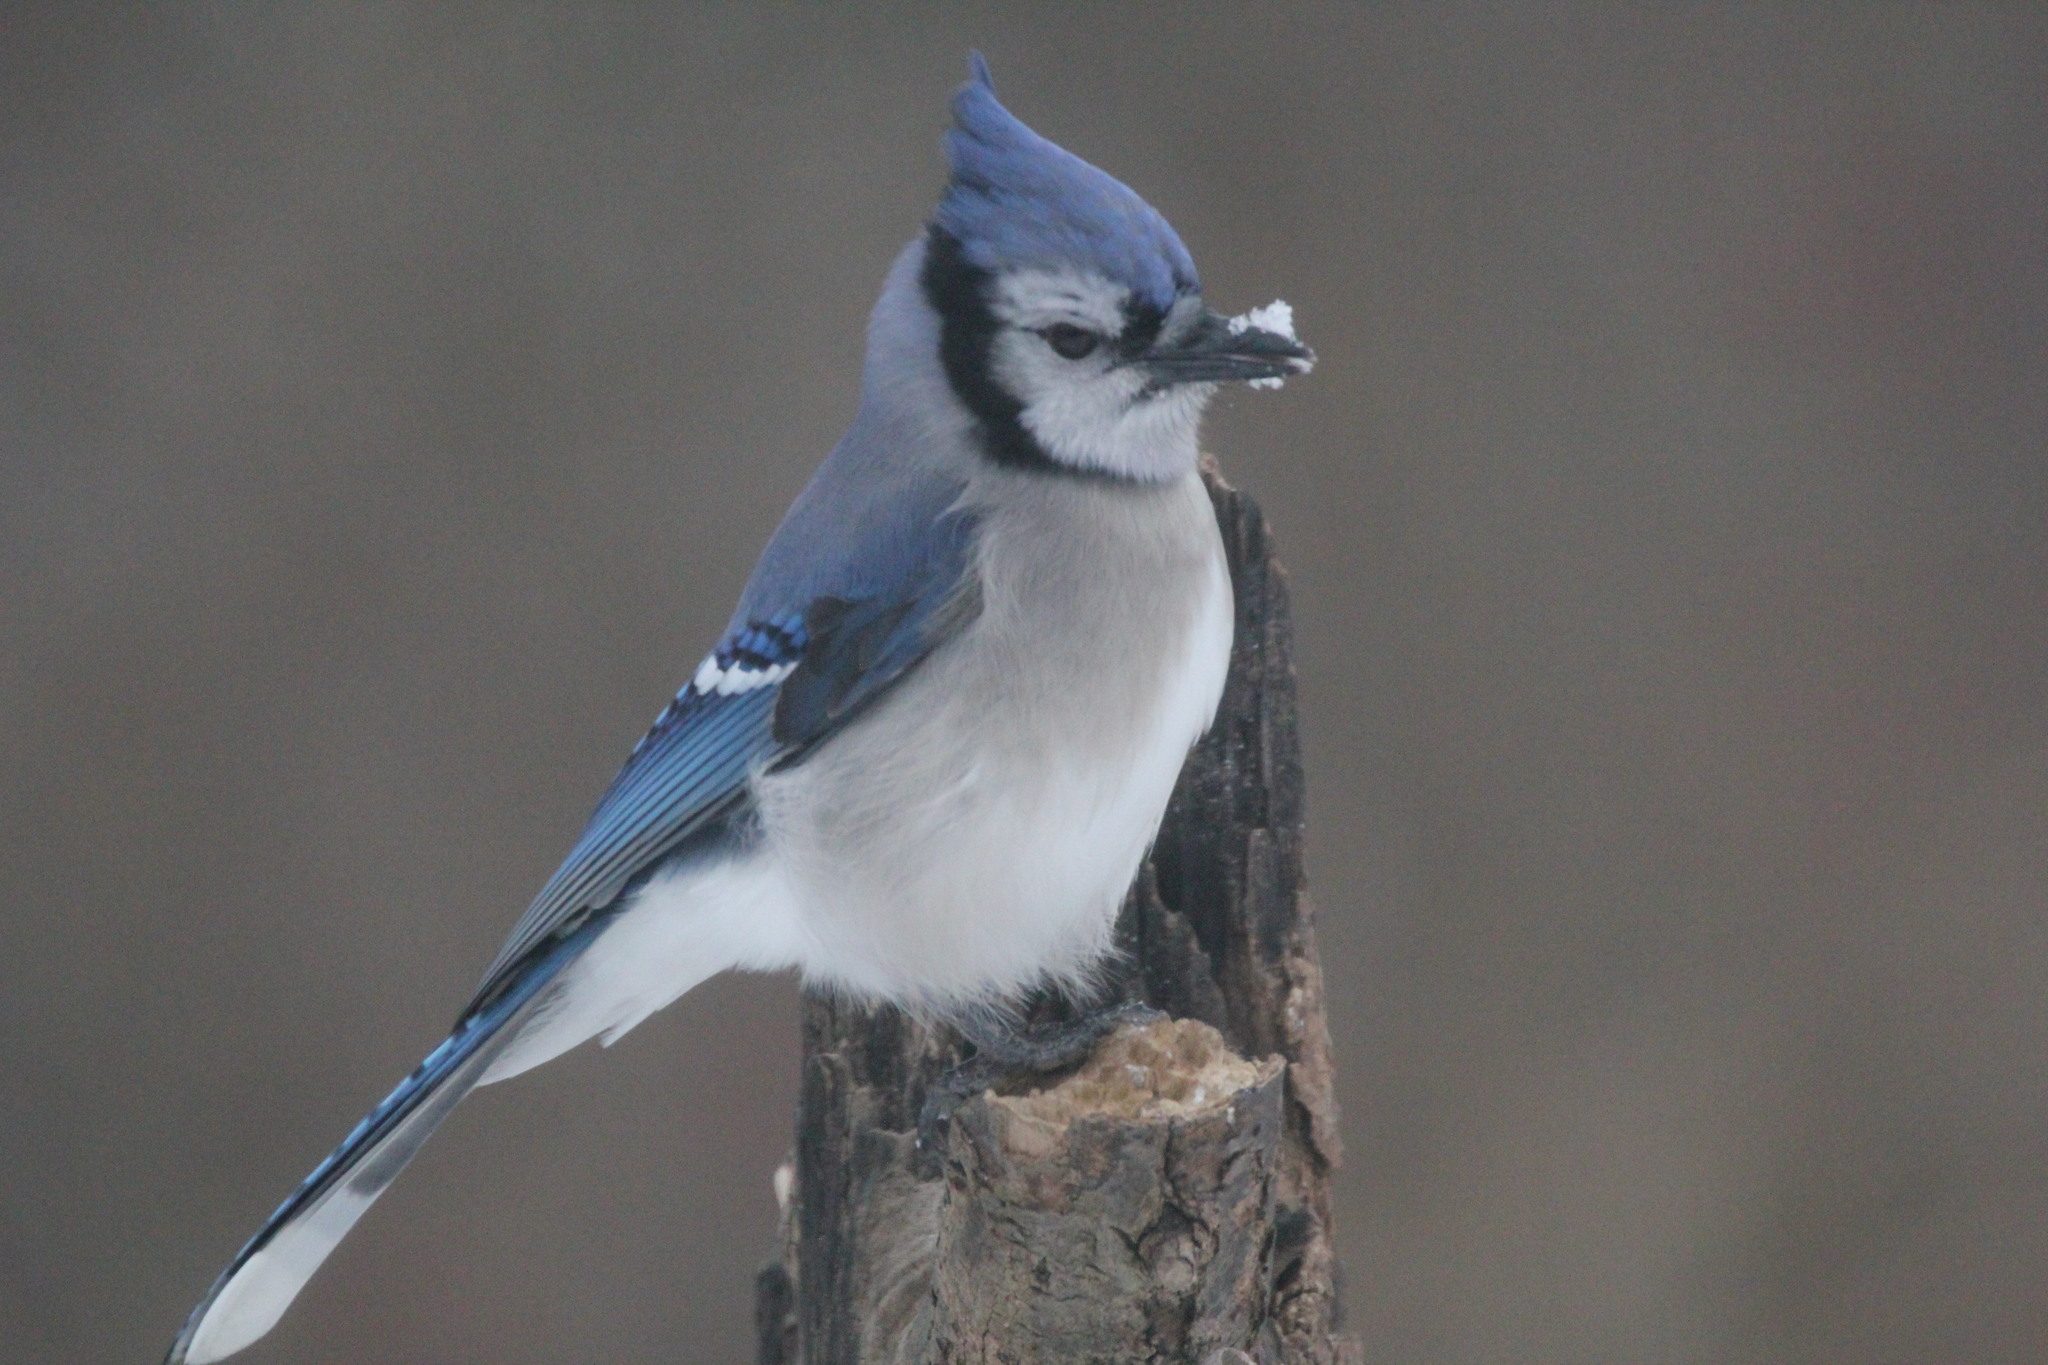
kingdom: Animalia
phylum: Chordata
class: Aves
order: Passeriformes
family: Corvidae
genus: Cyanocitta
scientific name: Cyanocitta cristata
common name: Blue jay
